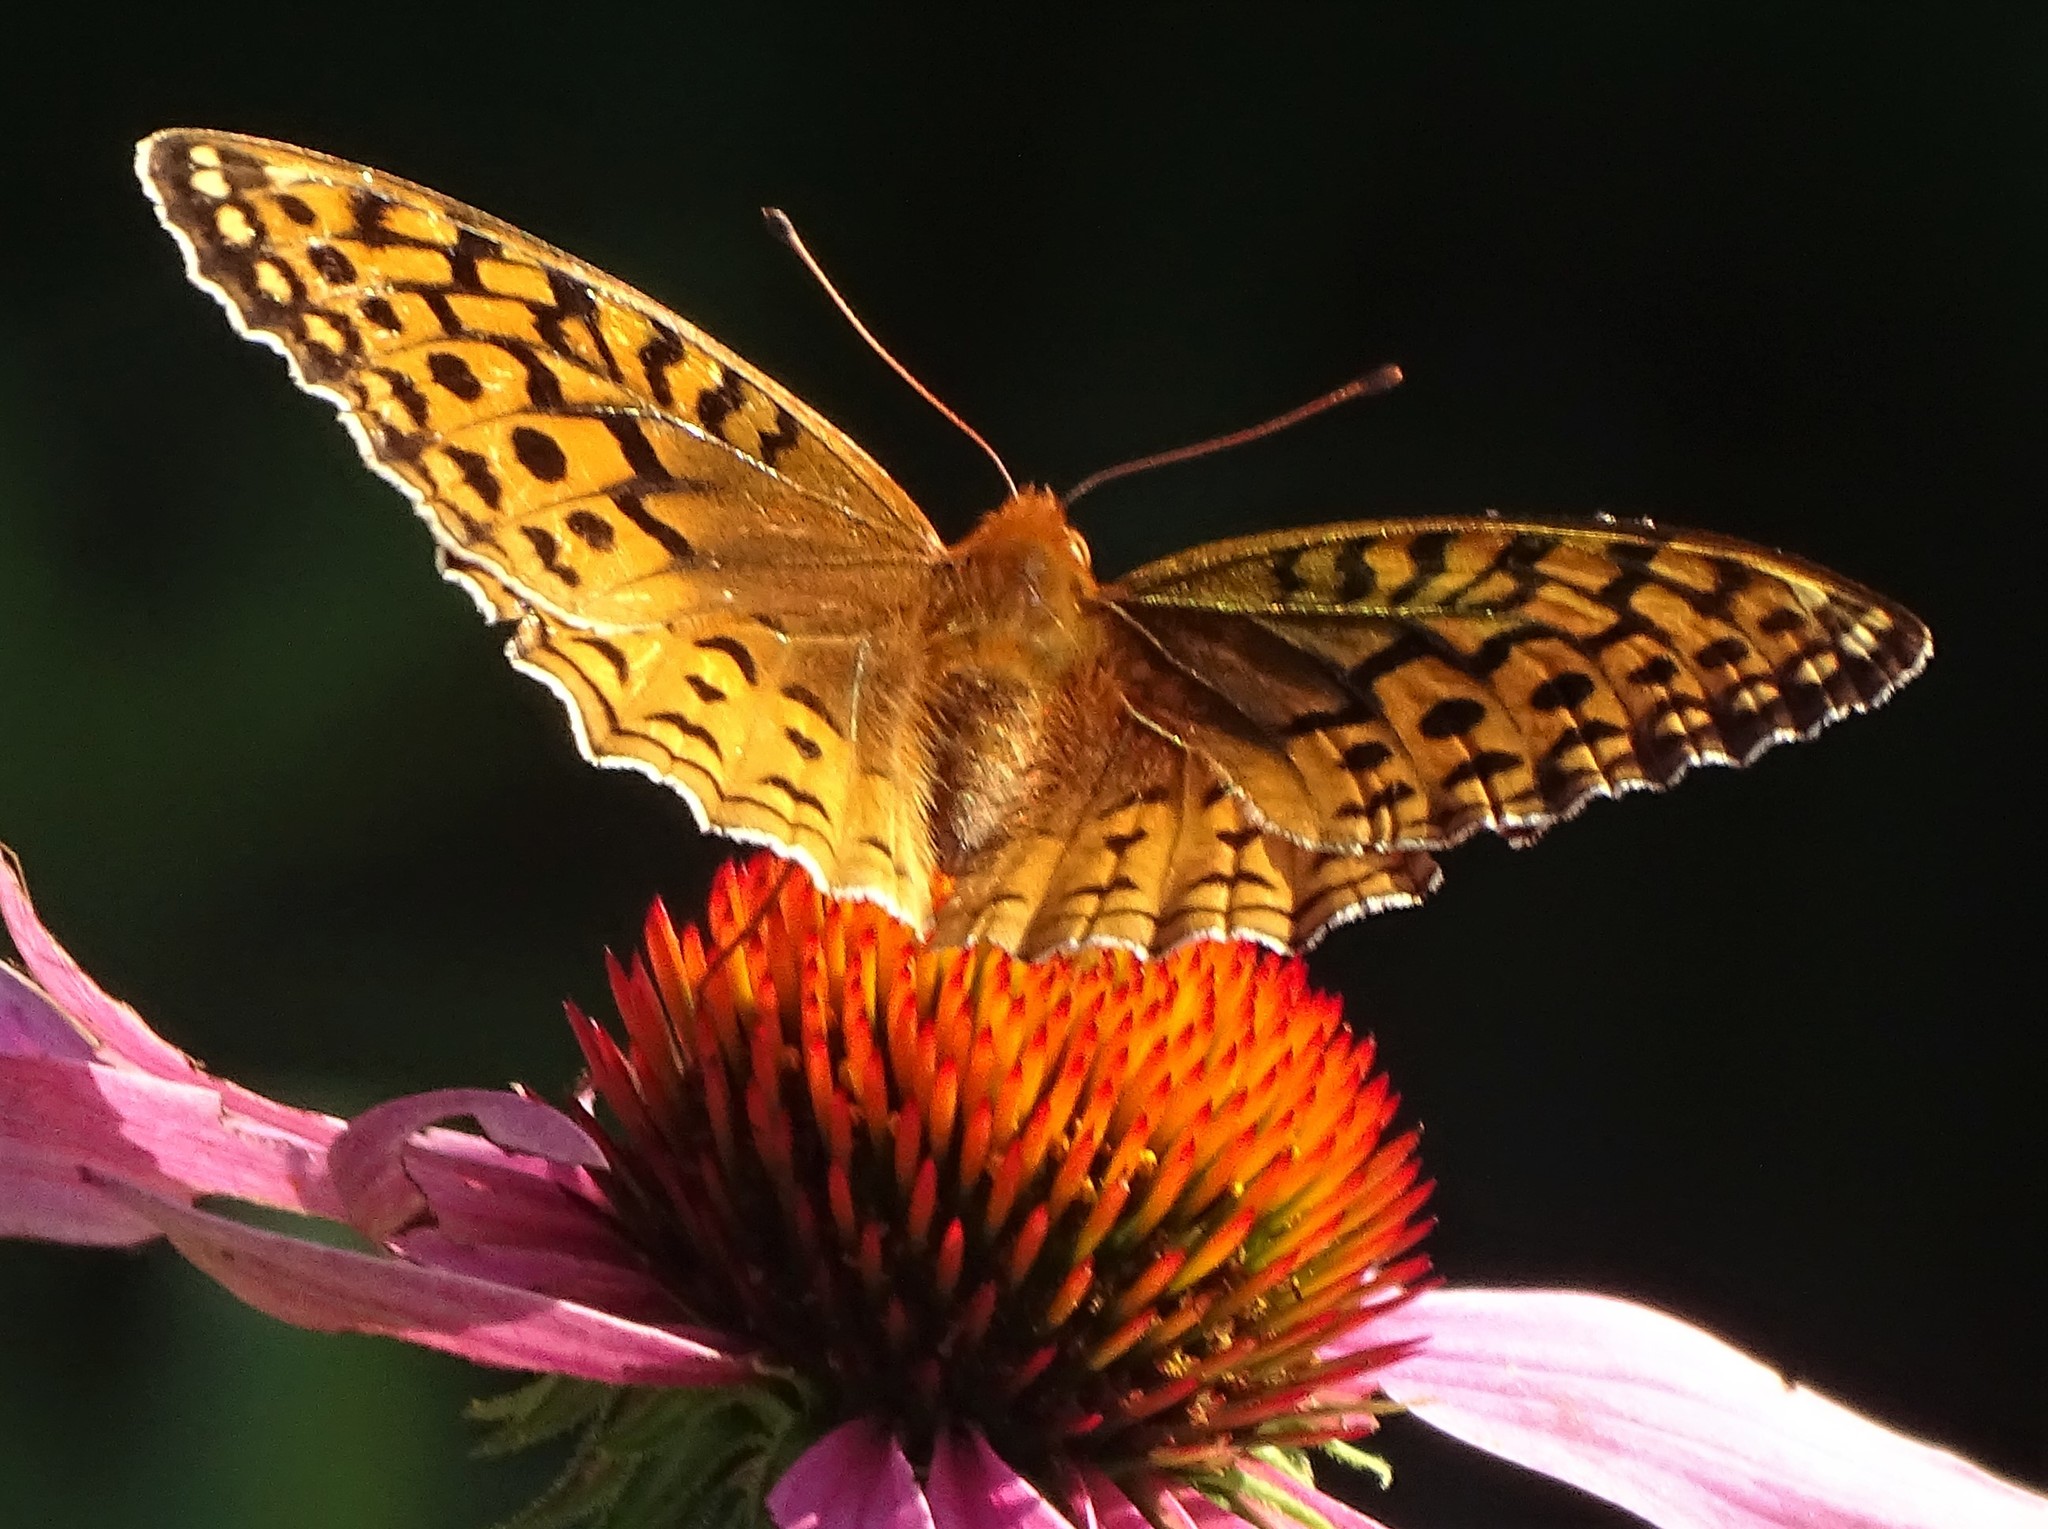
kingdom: Animalia
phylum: Arthropoda
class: Insecta
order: Lepidoptera
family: Nymphalidae
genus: Speyeria
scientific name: Speyeria cybele
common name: Great spangled fritillary
